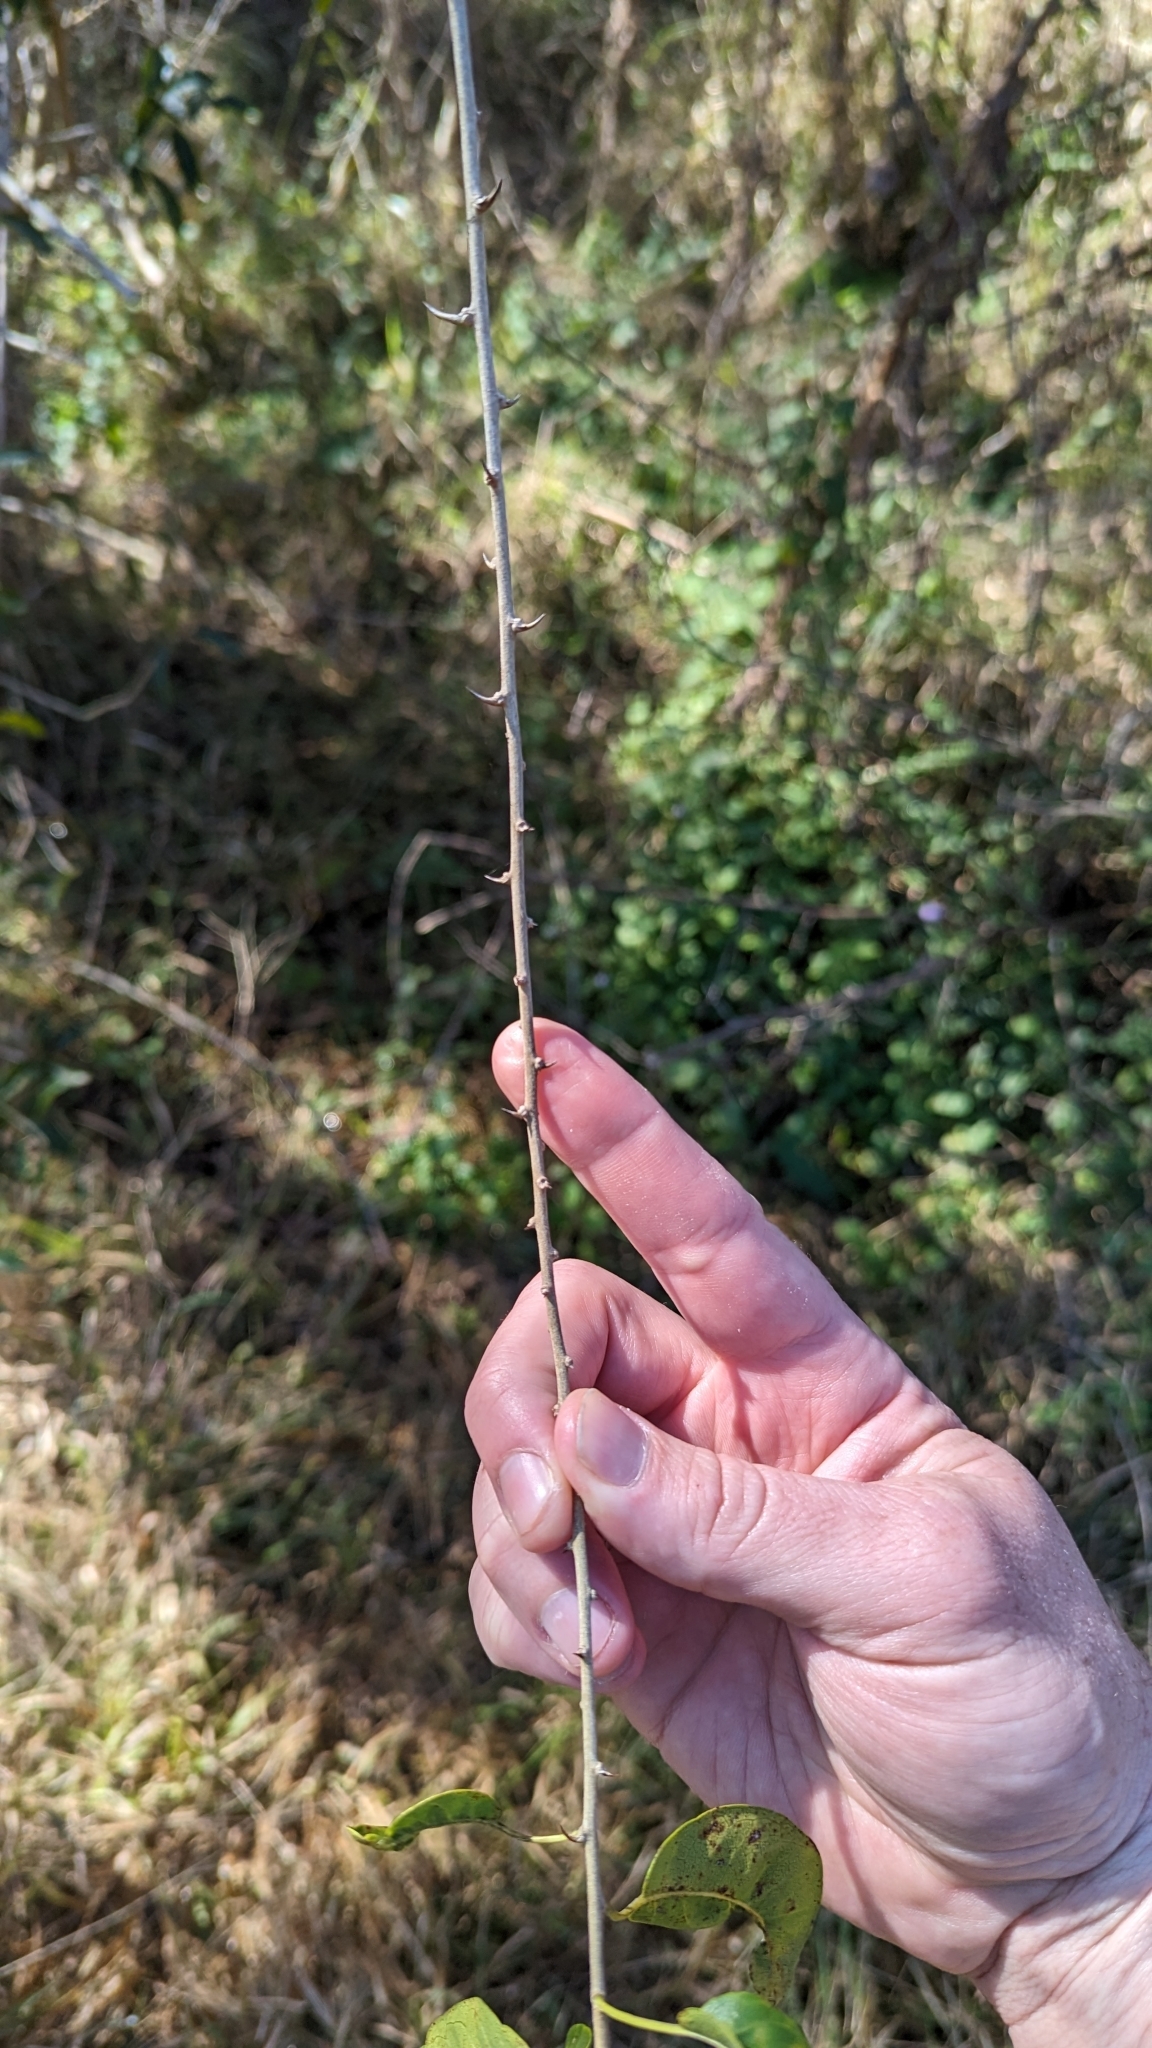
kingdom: Plantae
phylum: Tracheophyta
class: Magnoliopsida
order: Rosales
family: Moraceae
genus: Maclura
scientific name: Maclura cochinchinensis
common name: Cockspurthorn
